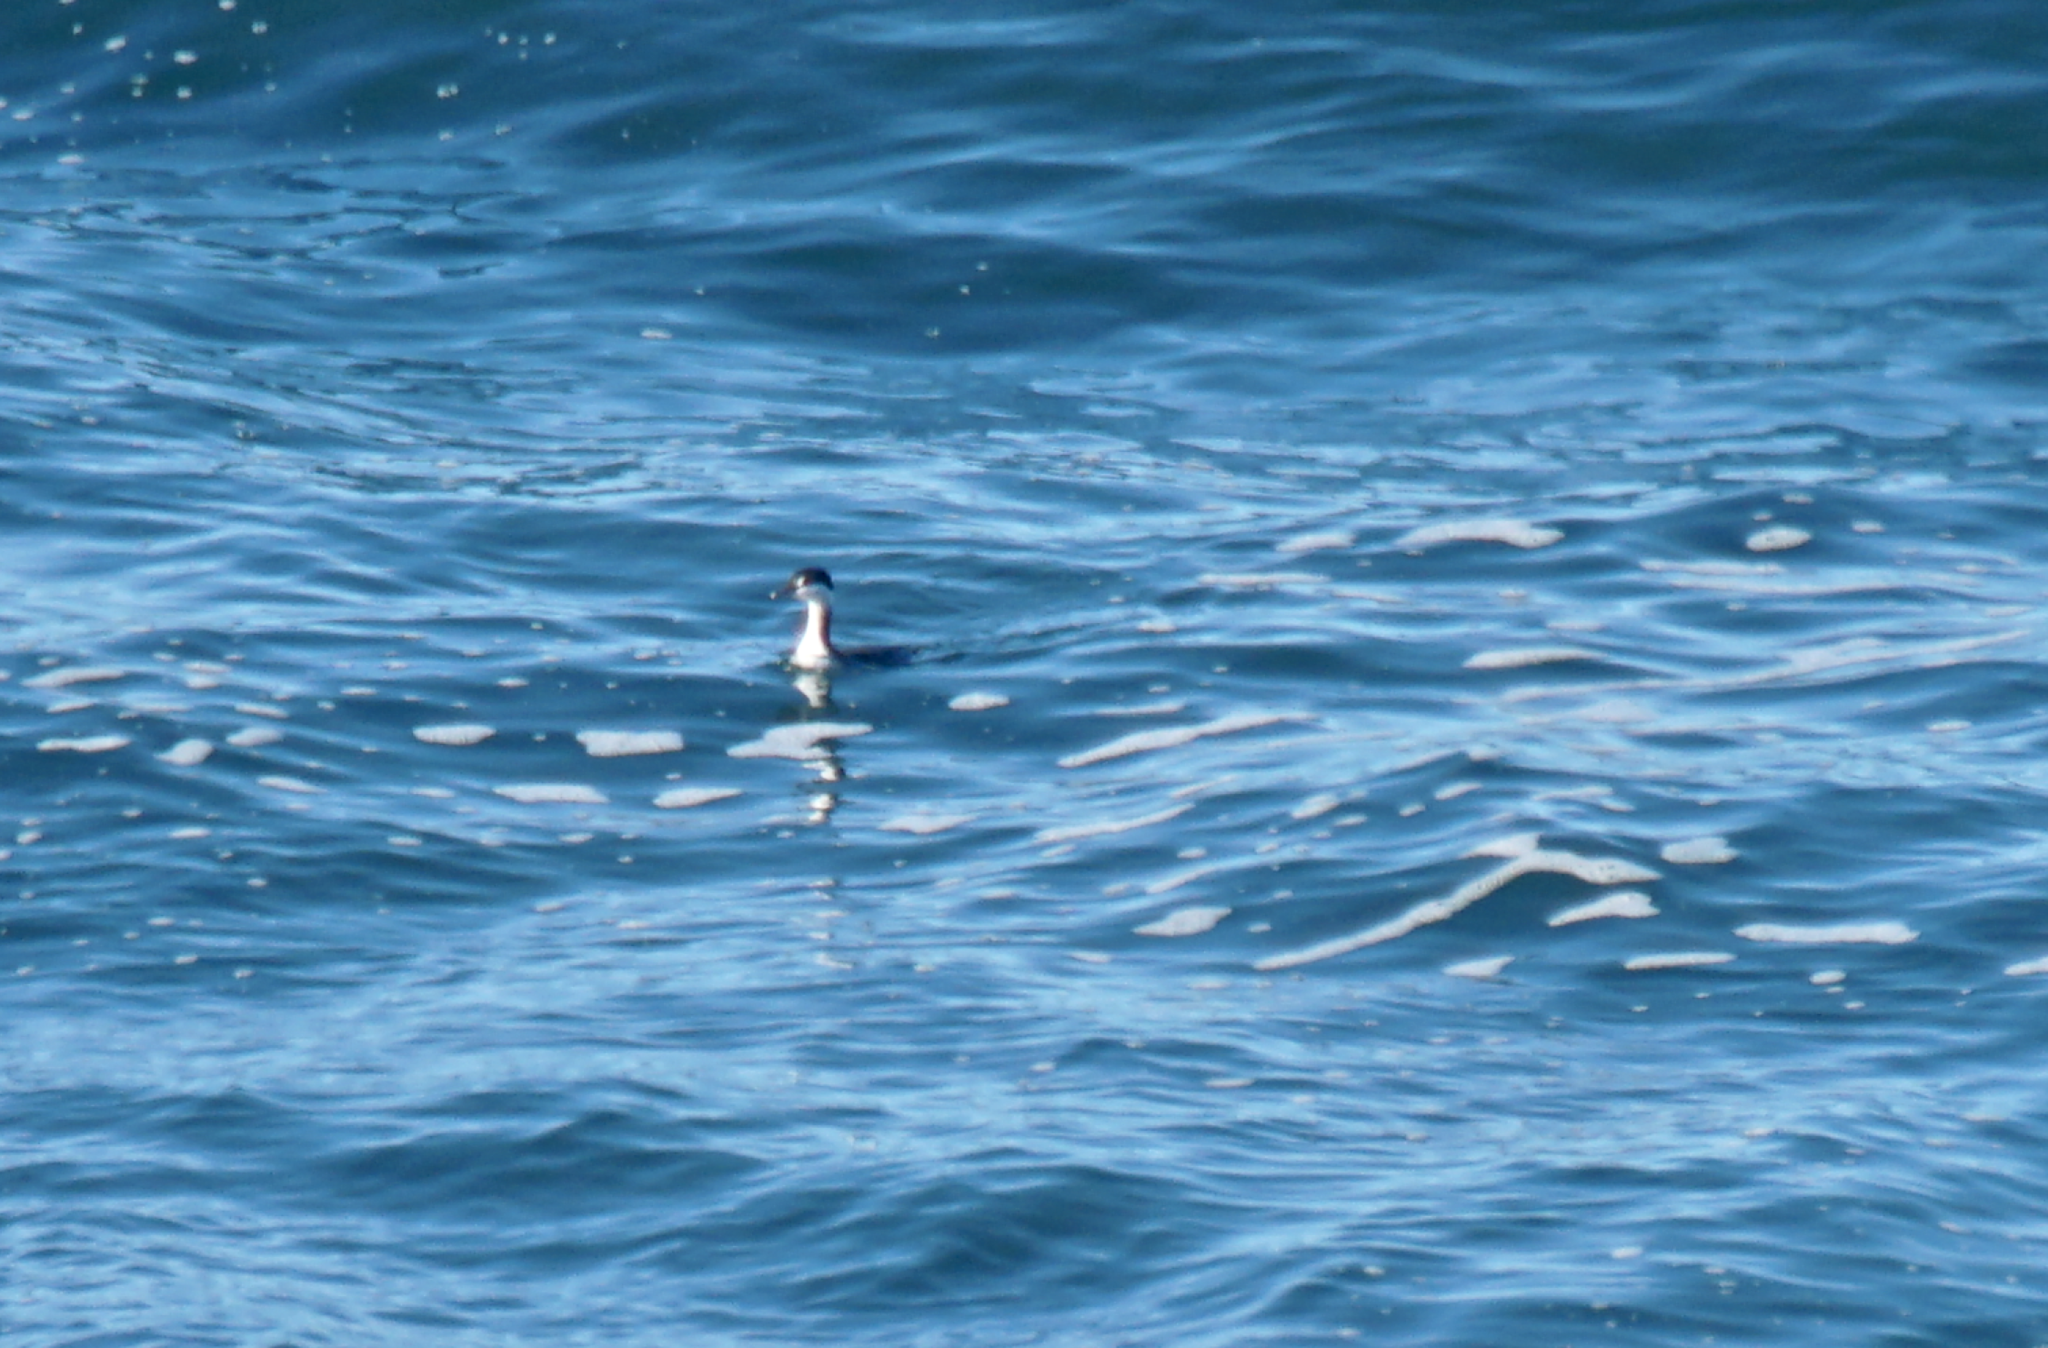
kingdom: Animalia
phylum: Chordata
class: Aves
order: Podicipediformes
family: Podicipedidae
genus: Podiceps
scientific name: Podiceps auritus
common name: Horned grebe
